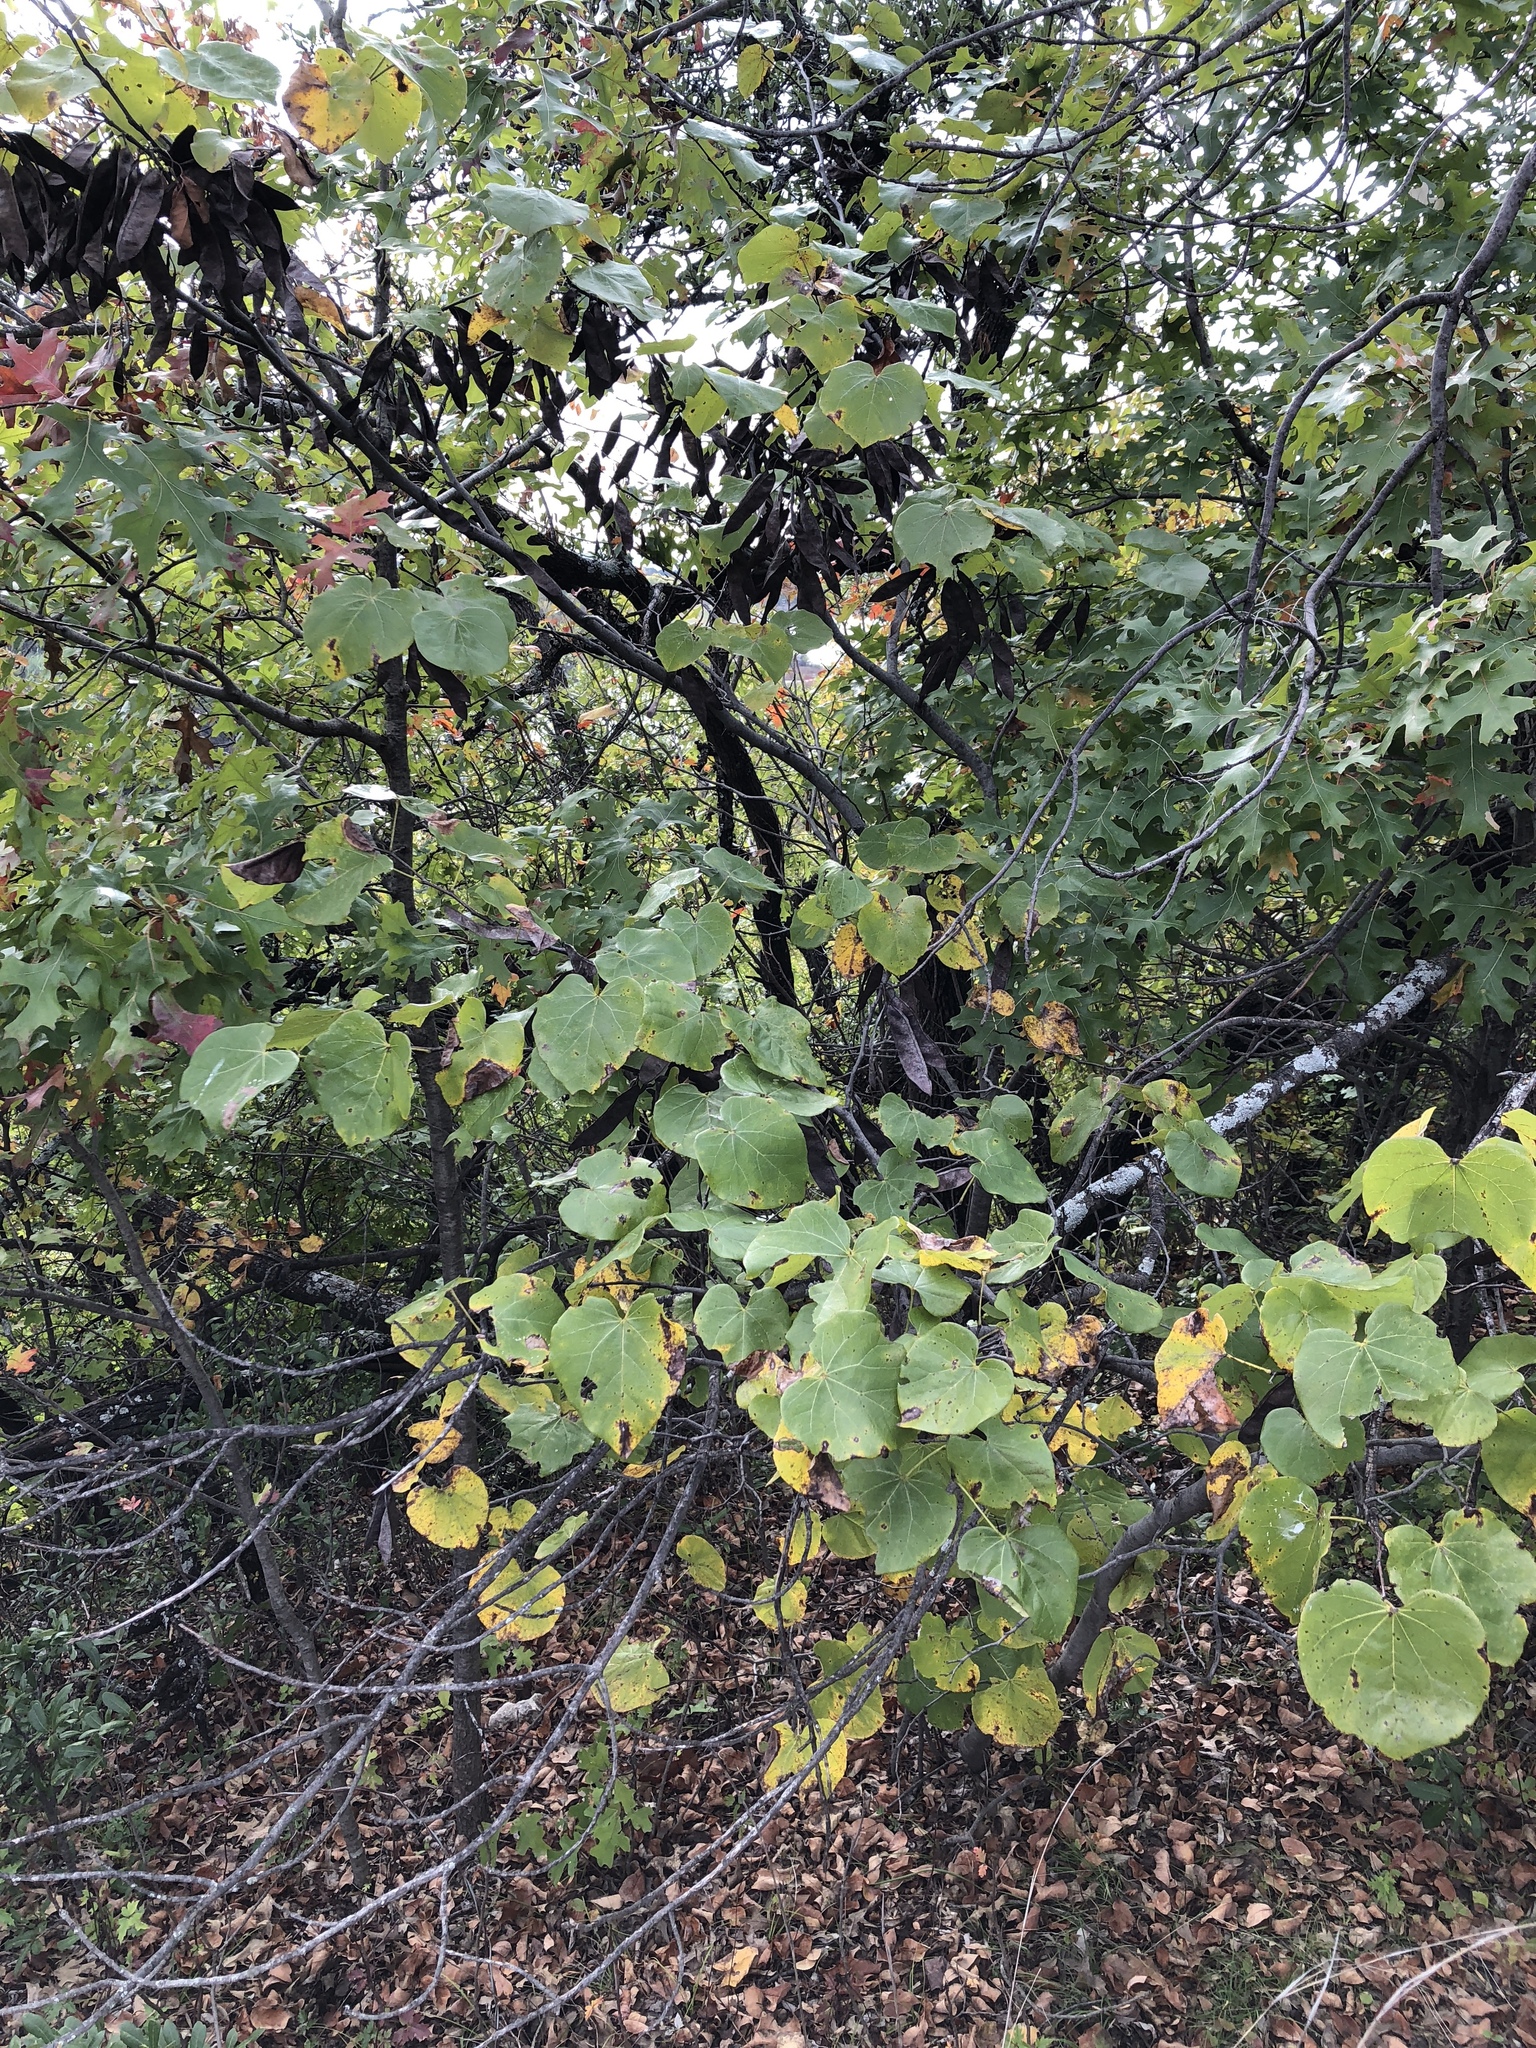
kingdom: Plantae
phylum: Tracheophyta
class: Magnoliopsida
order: Fabales
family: Fabaceae
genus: Cercis
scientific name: Cercis canadensis
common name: Eastern redbud
